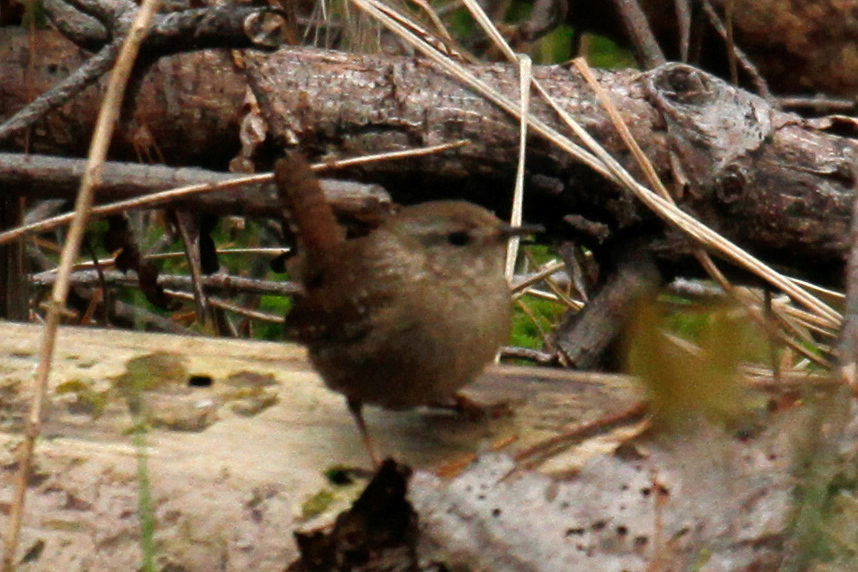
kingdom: Animalia
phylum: Chordata
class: Aves
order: Passeriformes
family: Troglodytidae
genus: Troglodytes
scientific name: Troglodytes hiemalis
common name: Winter wren
